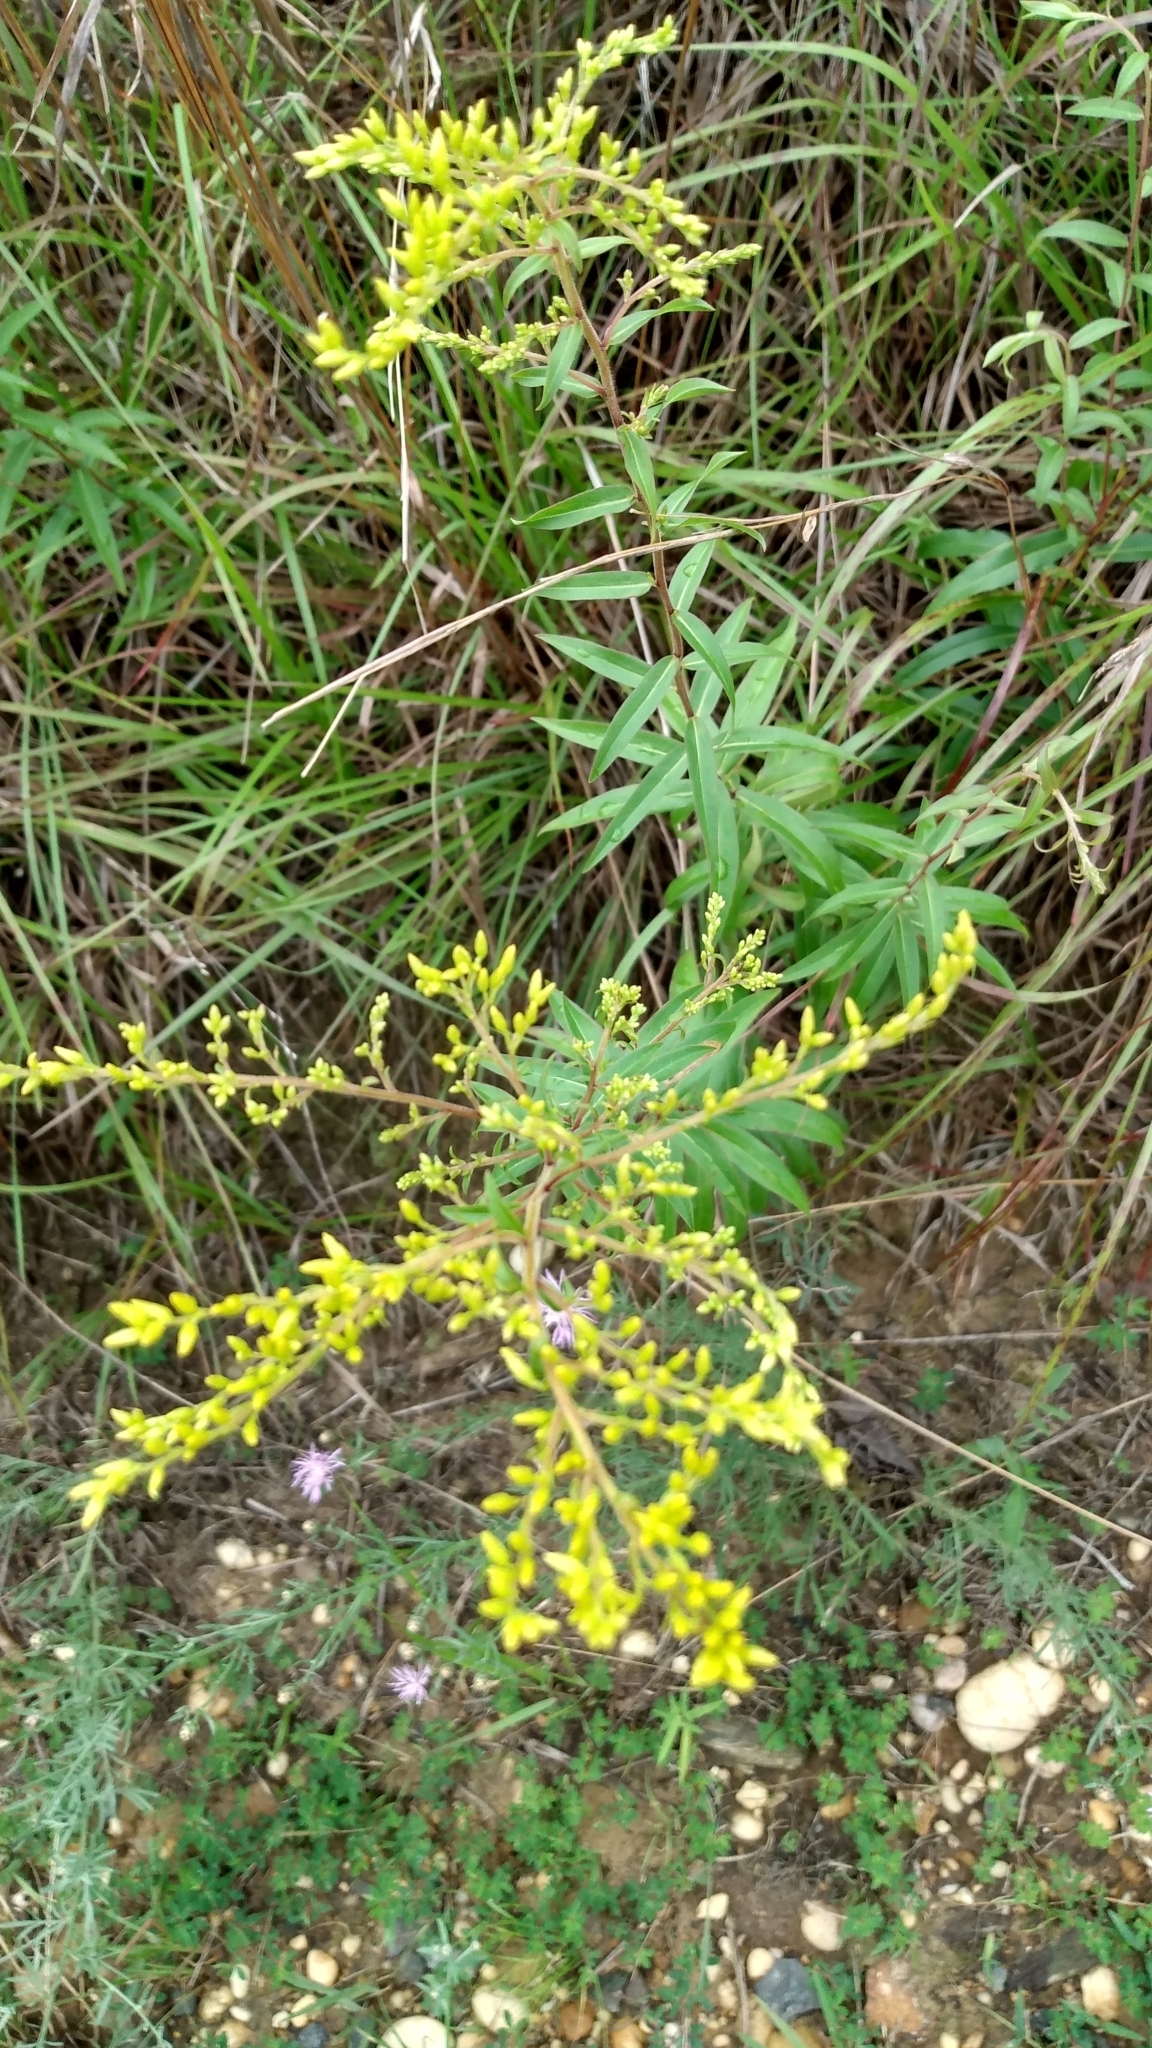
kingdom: Plantae
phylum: Tracheophyta
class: Magnoliopsida
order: Asterales
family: Asteraceae
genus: Solidago
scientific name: Solidago odora
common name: Anise-scented goldenrod
